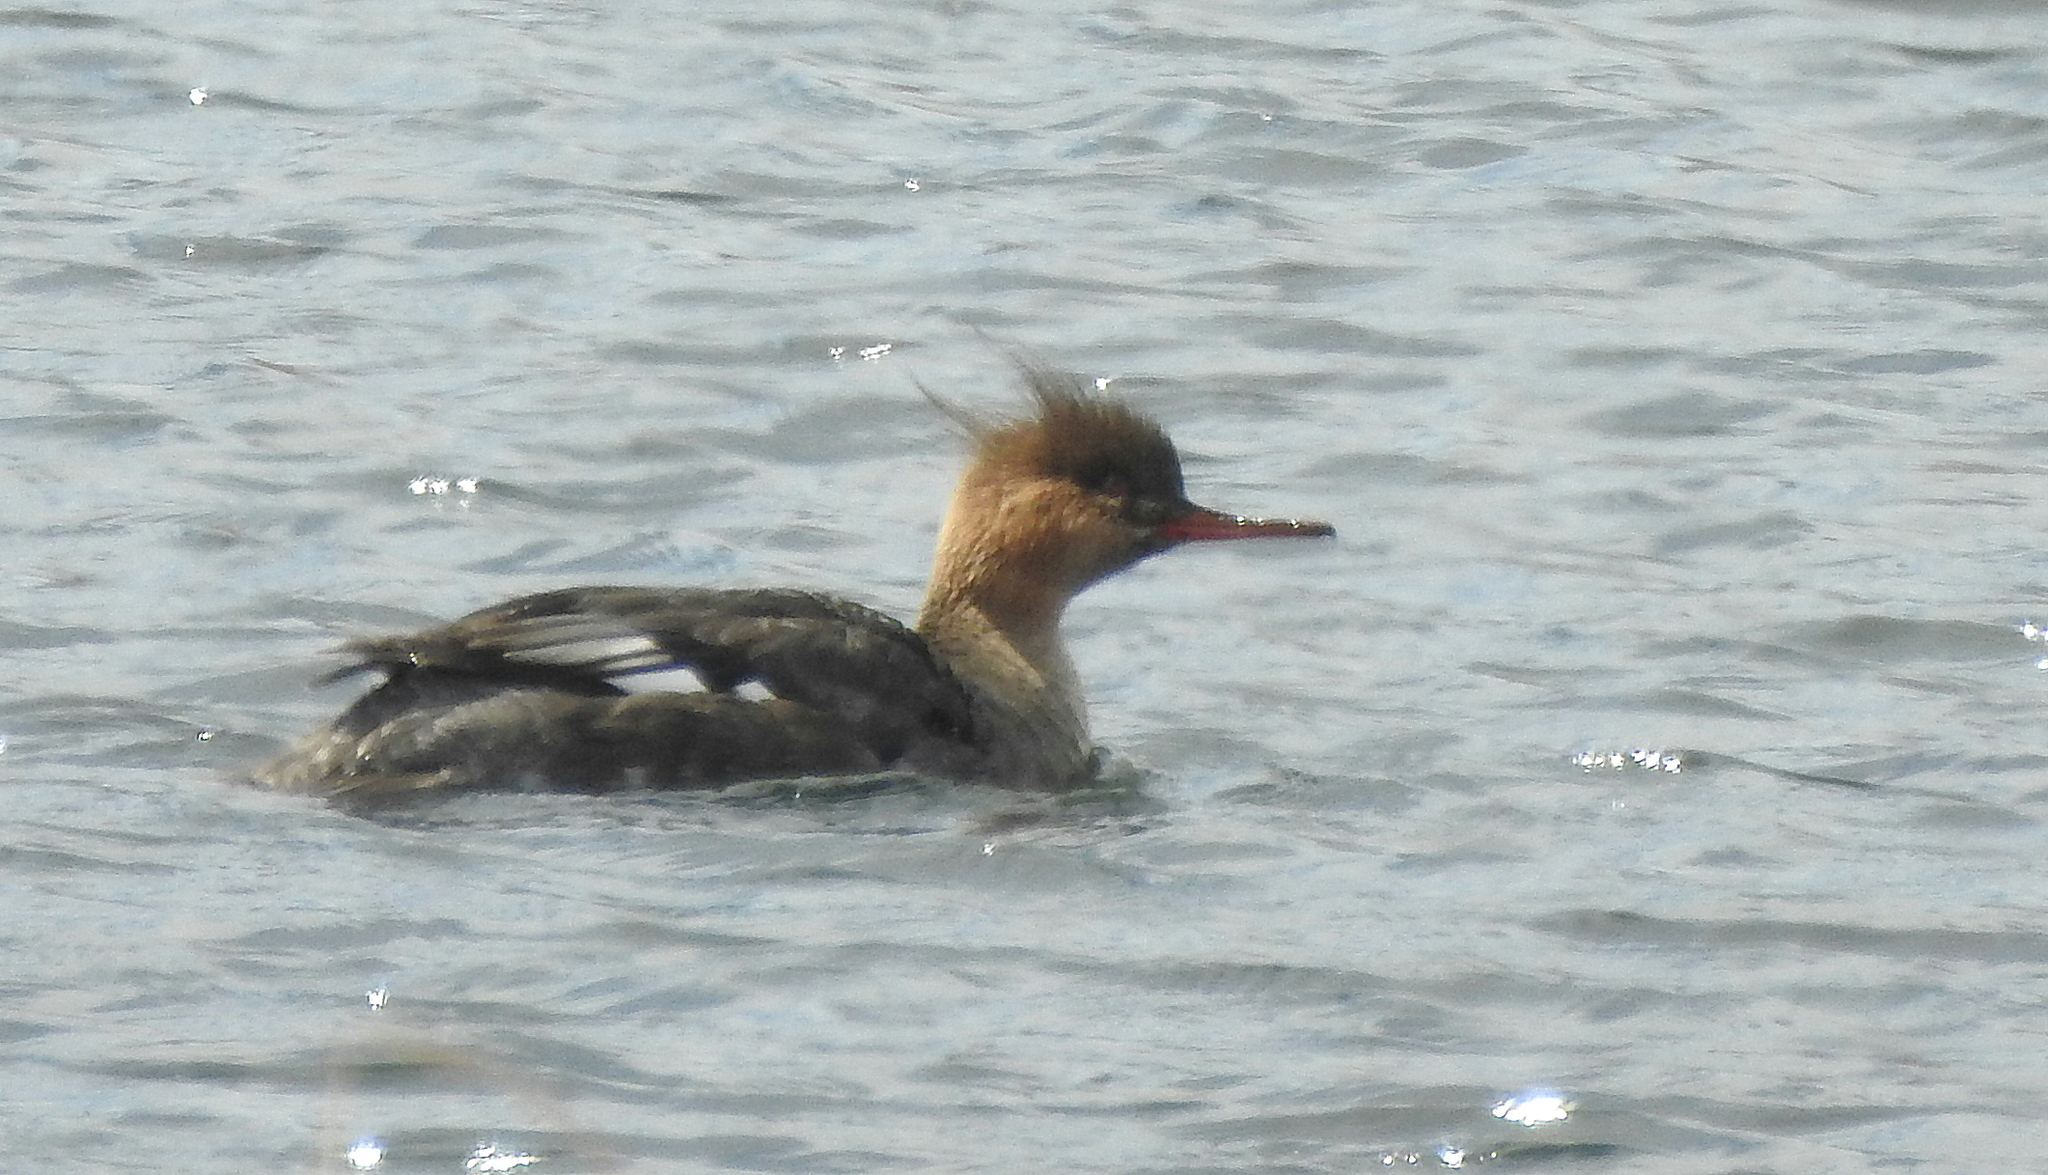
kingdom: Animalia
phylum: Chordata
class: Aves
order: Anseriformes
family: Anatidae
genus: Mergus
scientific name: Mergus serrator
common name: Red-breasted merganser
